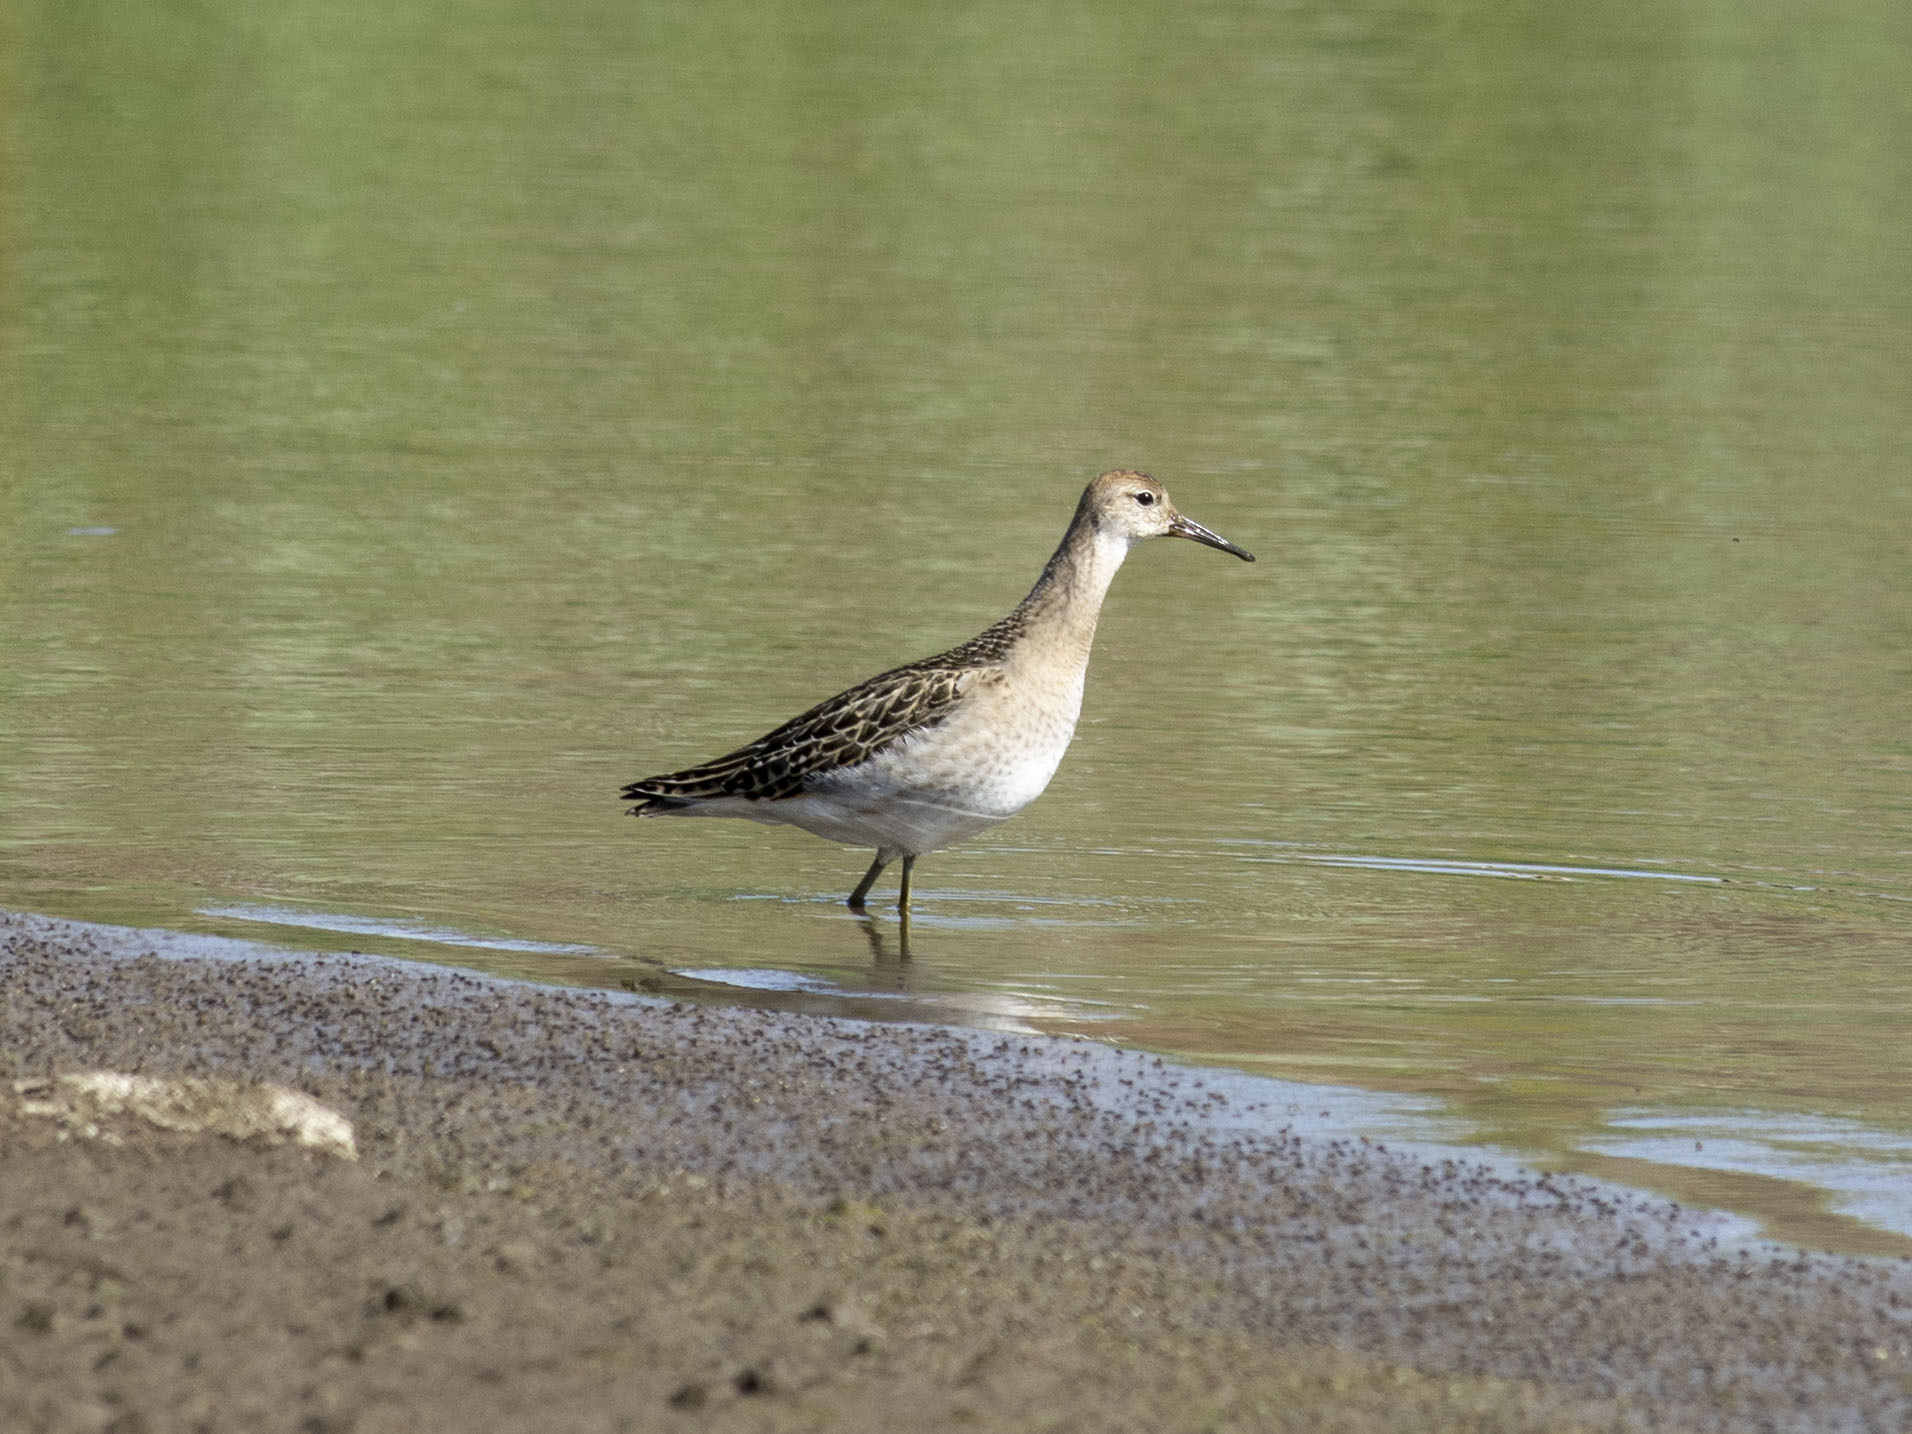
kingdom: Animalia
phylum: Chordata
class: Aves
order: Charadriiformes
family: Scolopacidae
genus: Calidris
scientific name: Calidris pugnax
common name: Ruff
